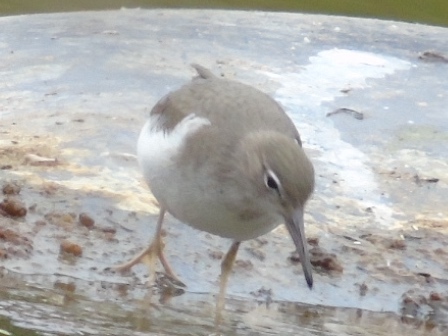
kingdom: Animalia
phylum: Chordata
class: Aves
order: Charadriiformes
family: Scolopacidae
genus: Actitis
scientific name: Actitis macularius
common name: Spotted sandpiper
